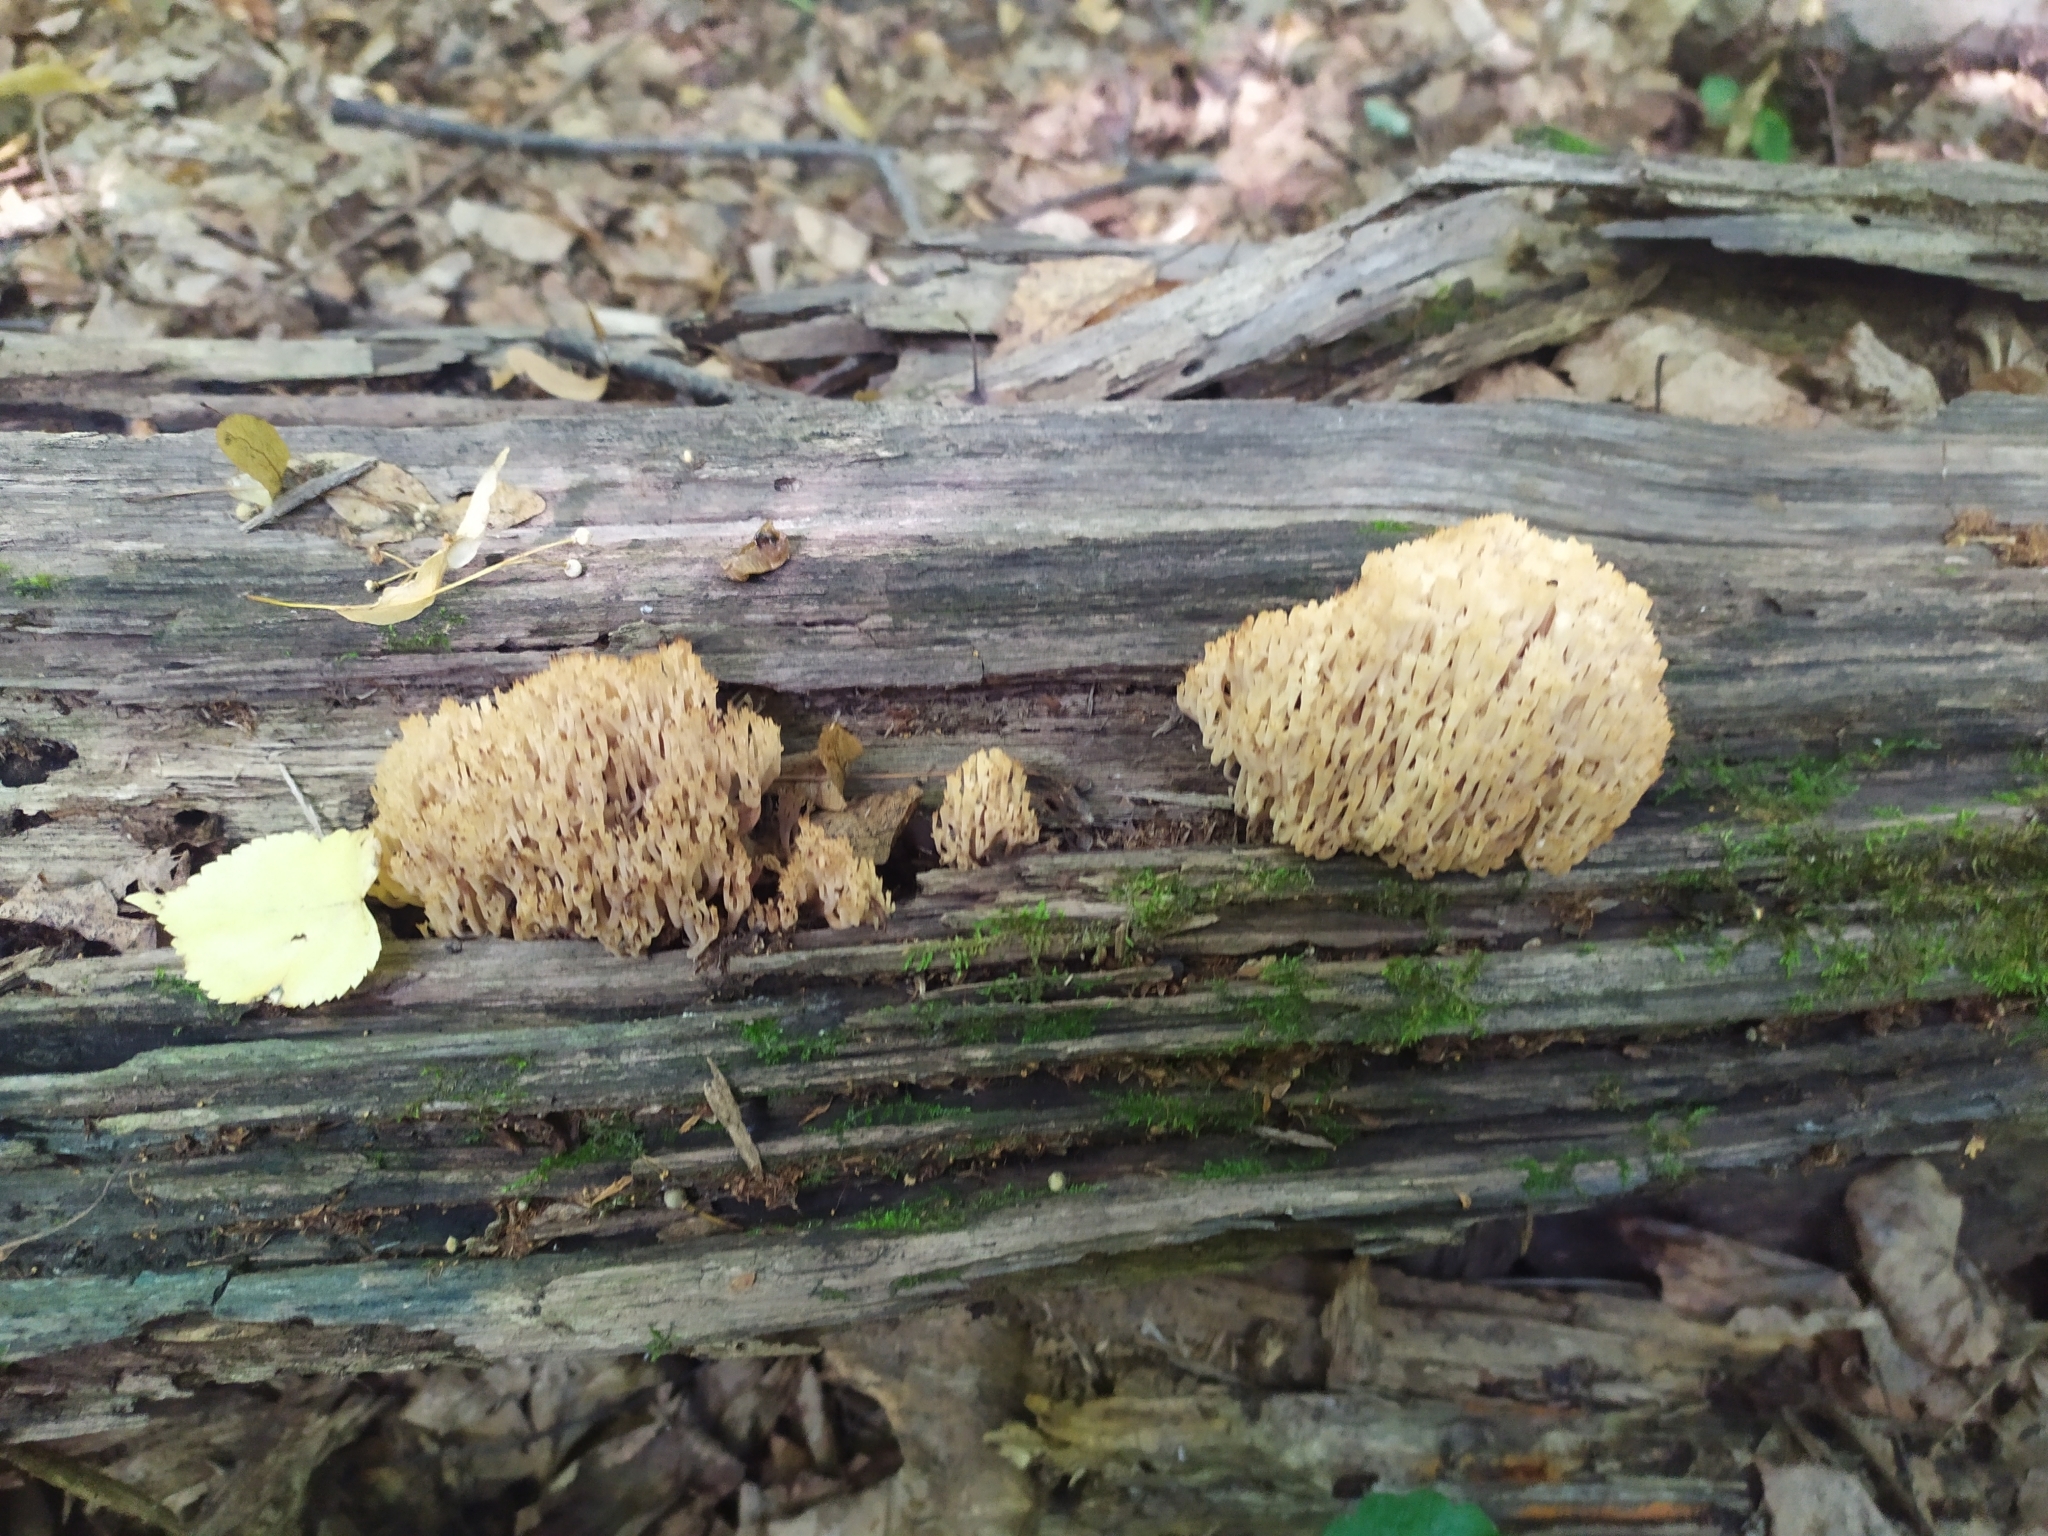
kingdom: Fungi
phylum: Basidiomycota
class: Agaricomycetes
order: Russulales
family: Auriscalpiaceae
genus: Artomyces
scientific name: Artomyces pyxidatus
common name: Crown-tipped coral fungus
